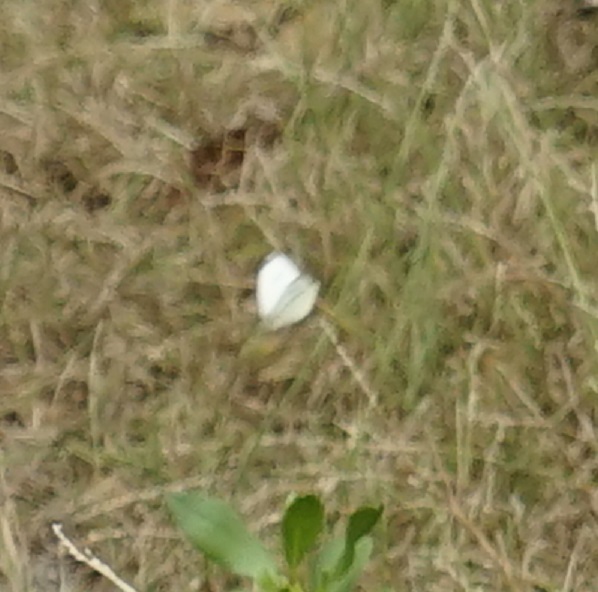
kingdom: Animalia
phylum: Arthropoda
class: Insecta
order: Lepidoptera
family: Pieridae
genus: Pieris
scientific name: Pieris rapae
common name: Small white
